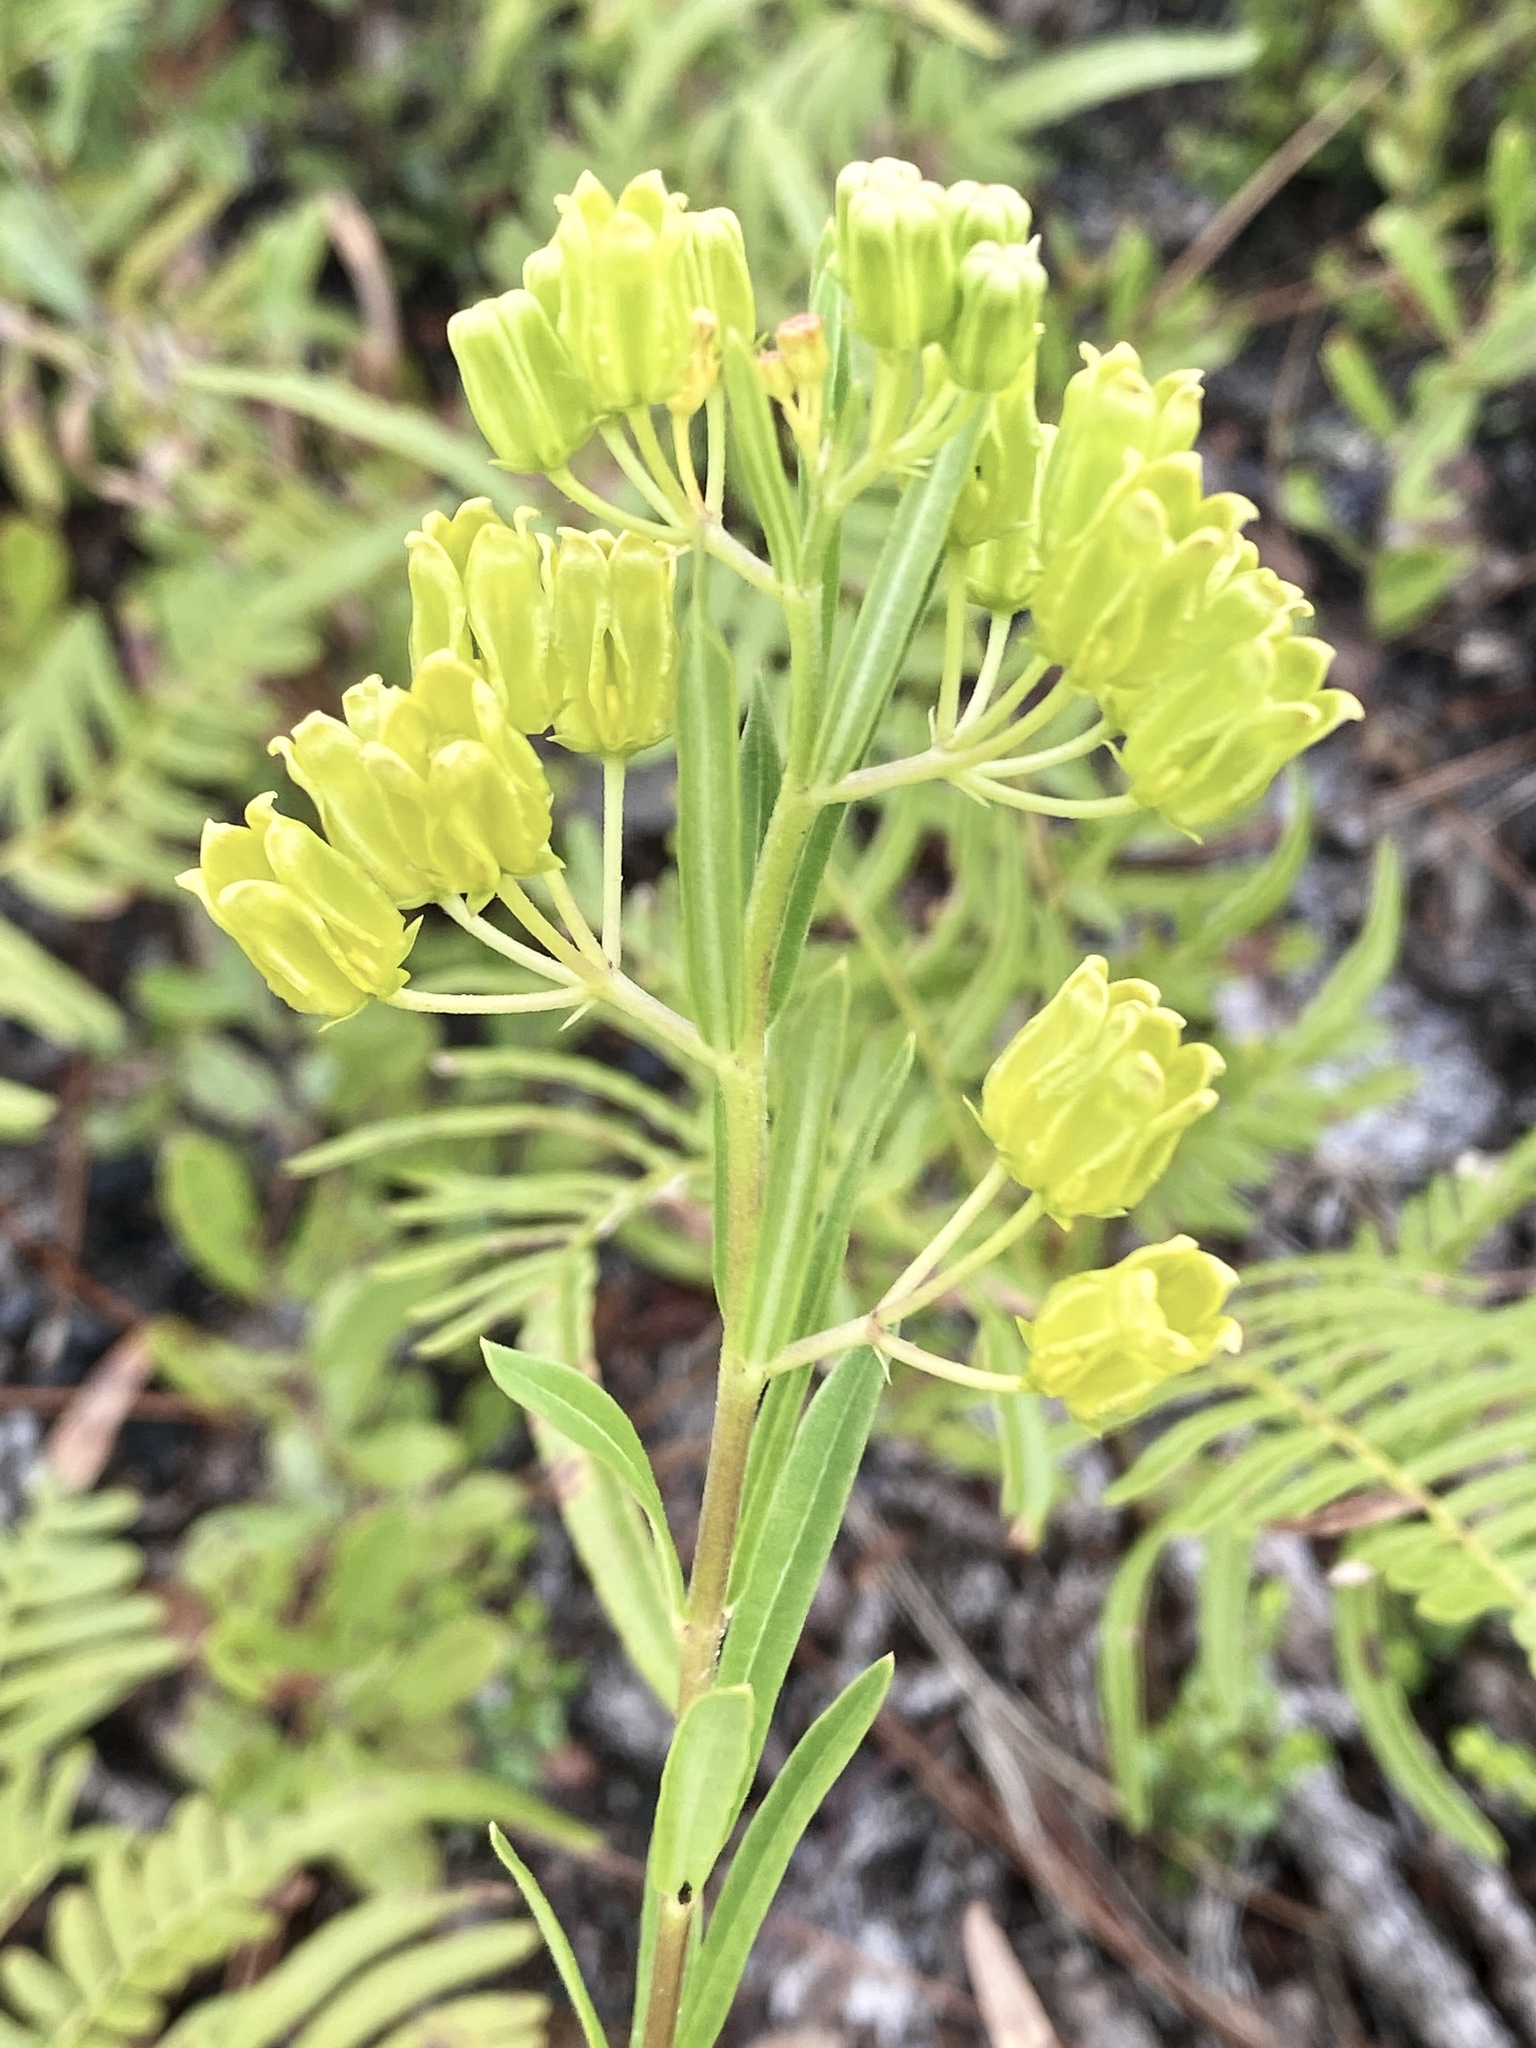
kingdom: Plantae
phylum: Tracheophyta
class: Magnoliopsida
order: Gentianales
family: Apocynaceae
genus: Asclepias
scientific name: Asclepias pedicellata
